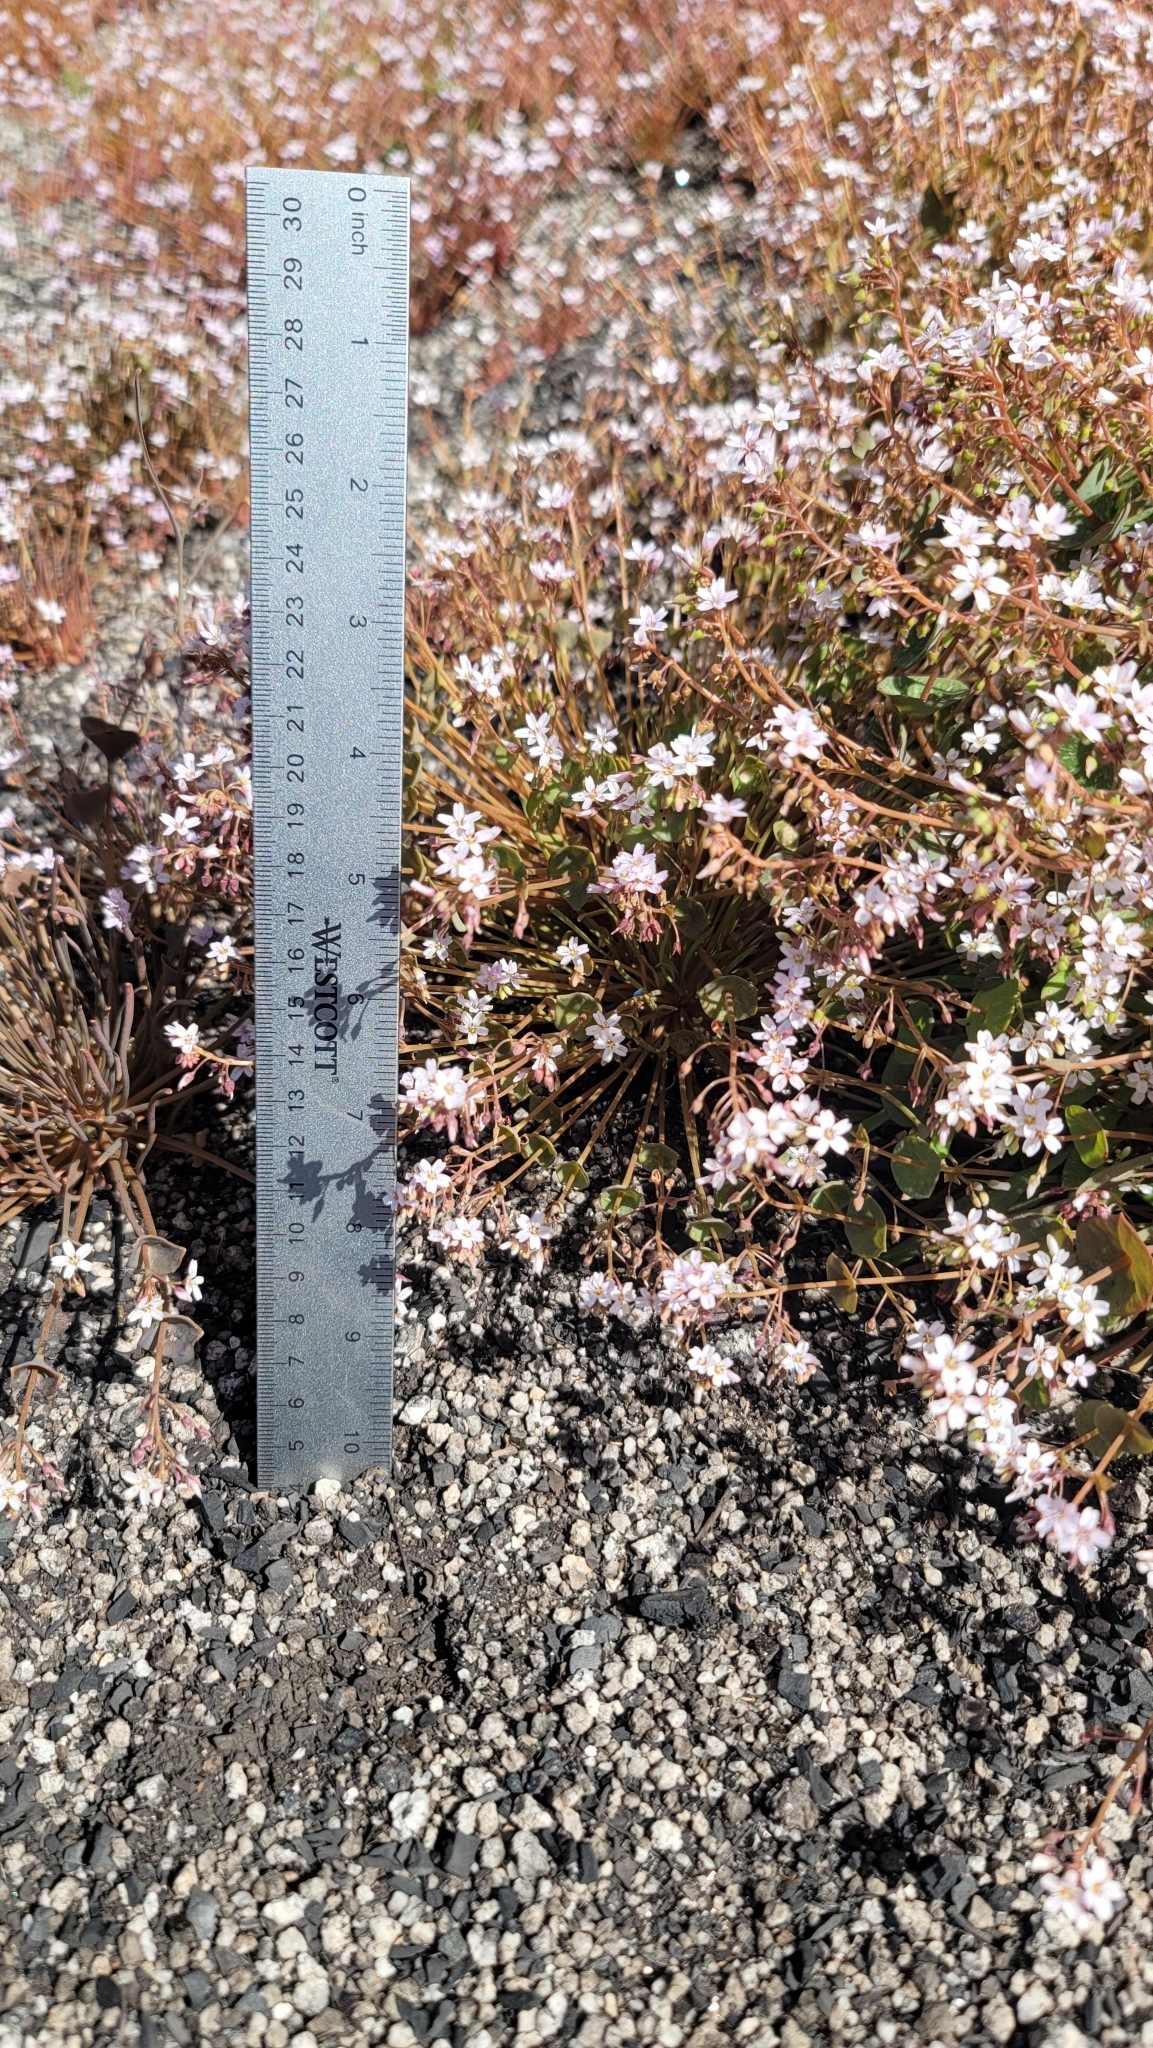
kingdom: Plantae
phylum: Tracheophyta
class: Magnoliopsida
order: Caryophyllales
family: Montiaceae
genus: Claytonia
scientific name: Claytonia parviflora
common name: Indian-lettuce
